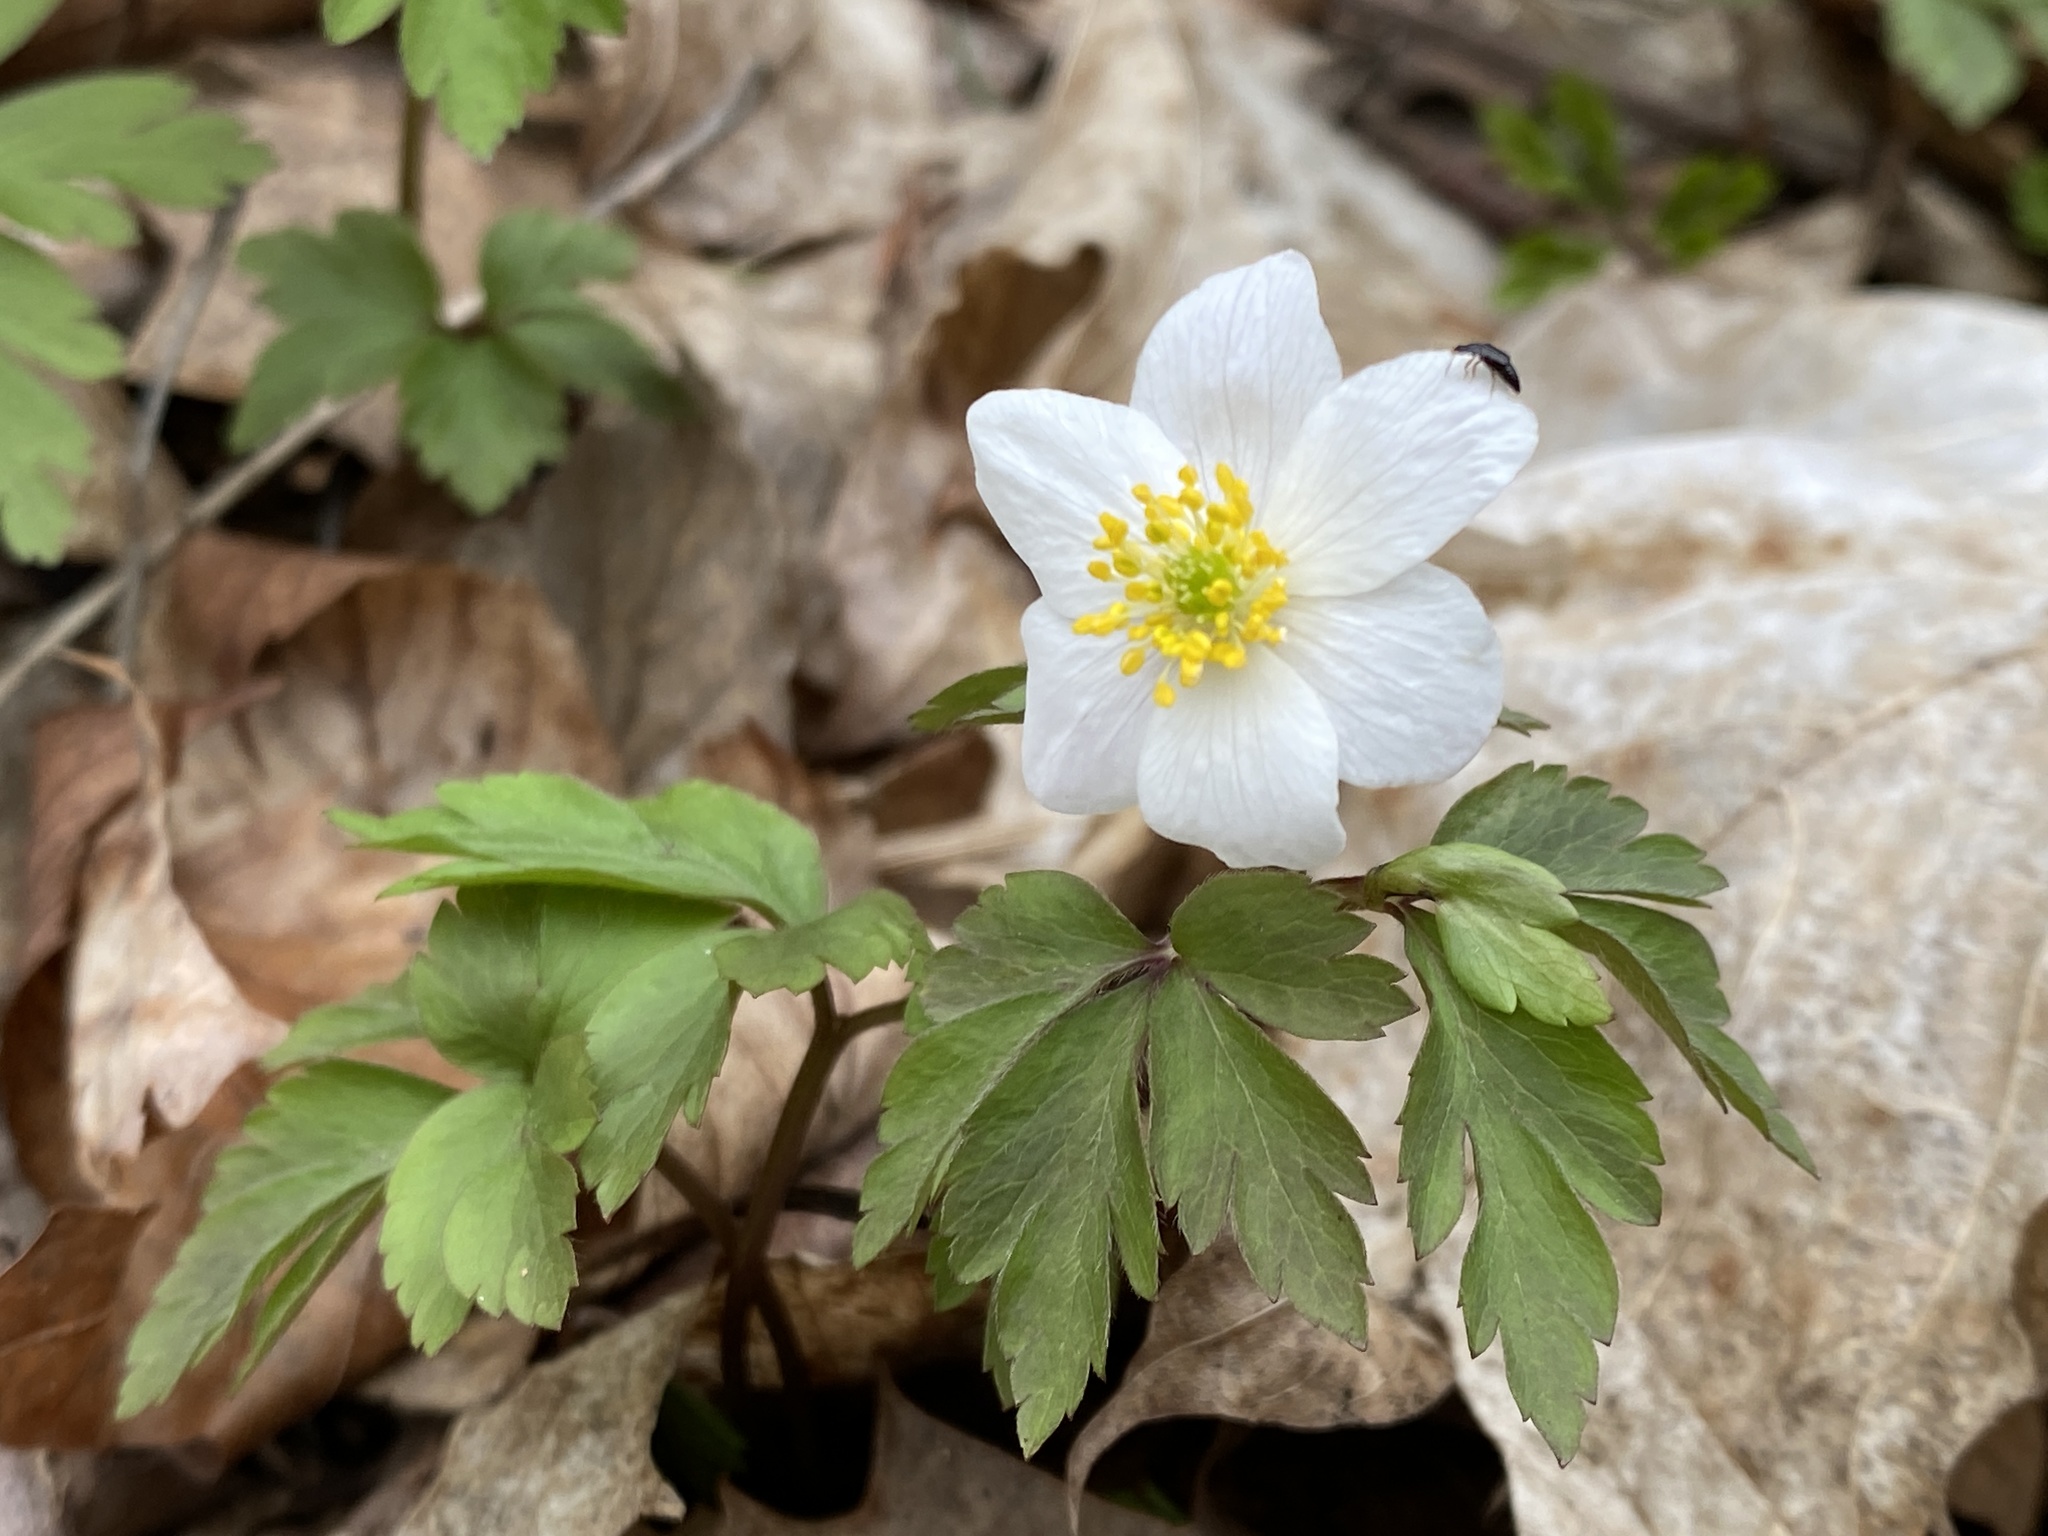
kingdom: Plantae
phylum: Tracheophyta
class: Magnoliopsida
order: Ranunculales
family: Ranunculaceae
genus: Anemone
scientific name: Anemone nemorosa
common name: Wood anemone
